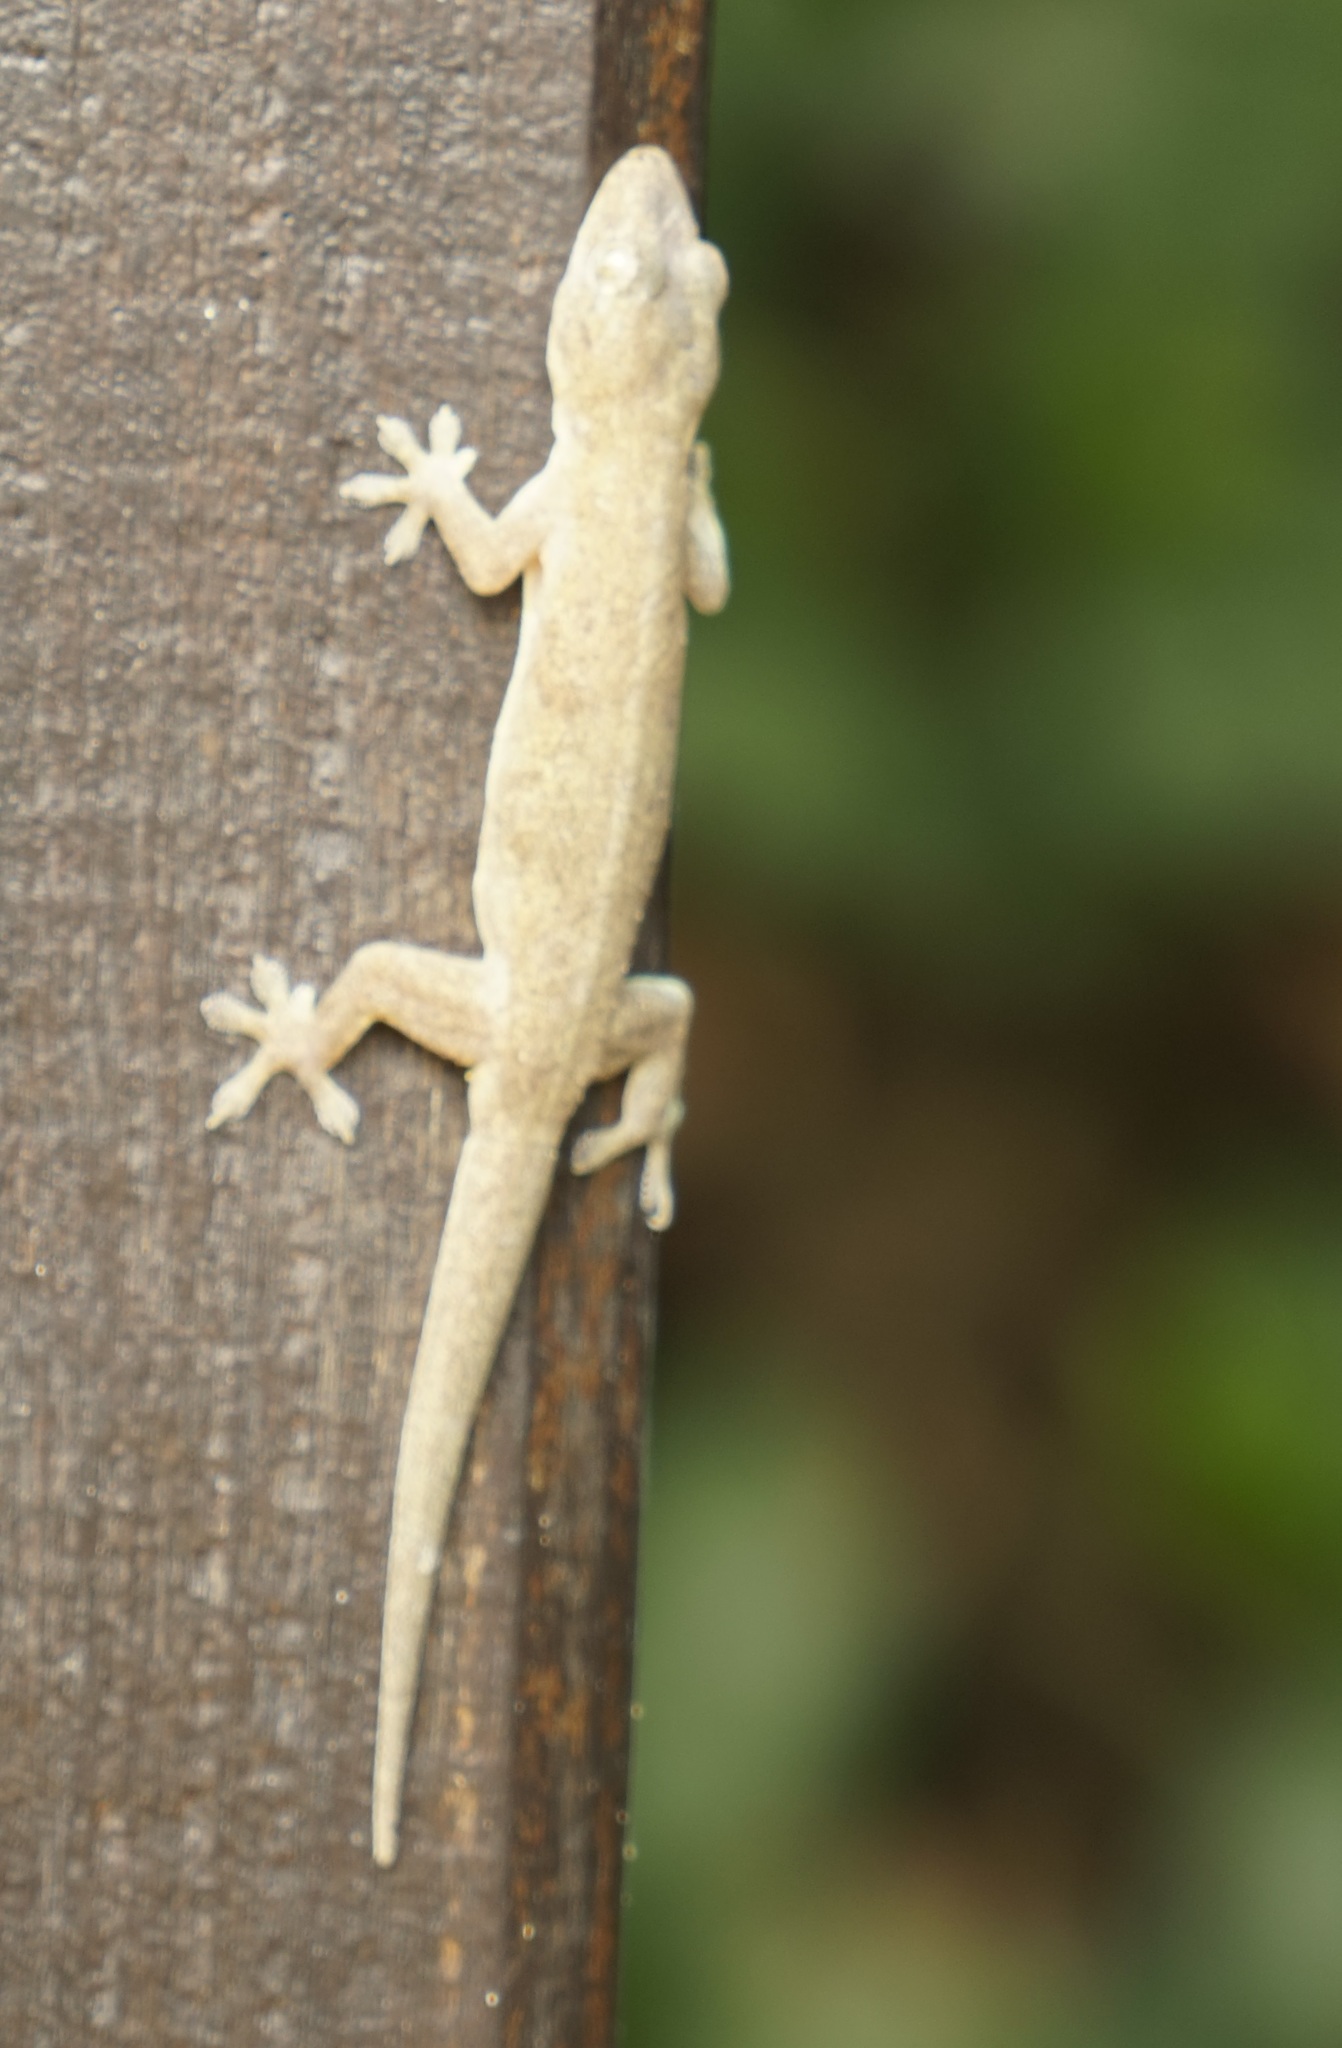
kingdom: Animalia
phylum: Chordata
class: Squamata
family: Gekkonidae
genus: Hemidactylus
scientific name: Hemidactylus frenatus
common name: Common house gecko
